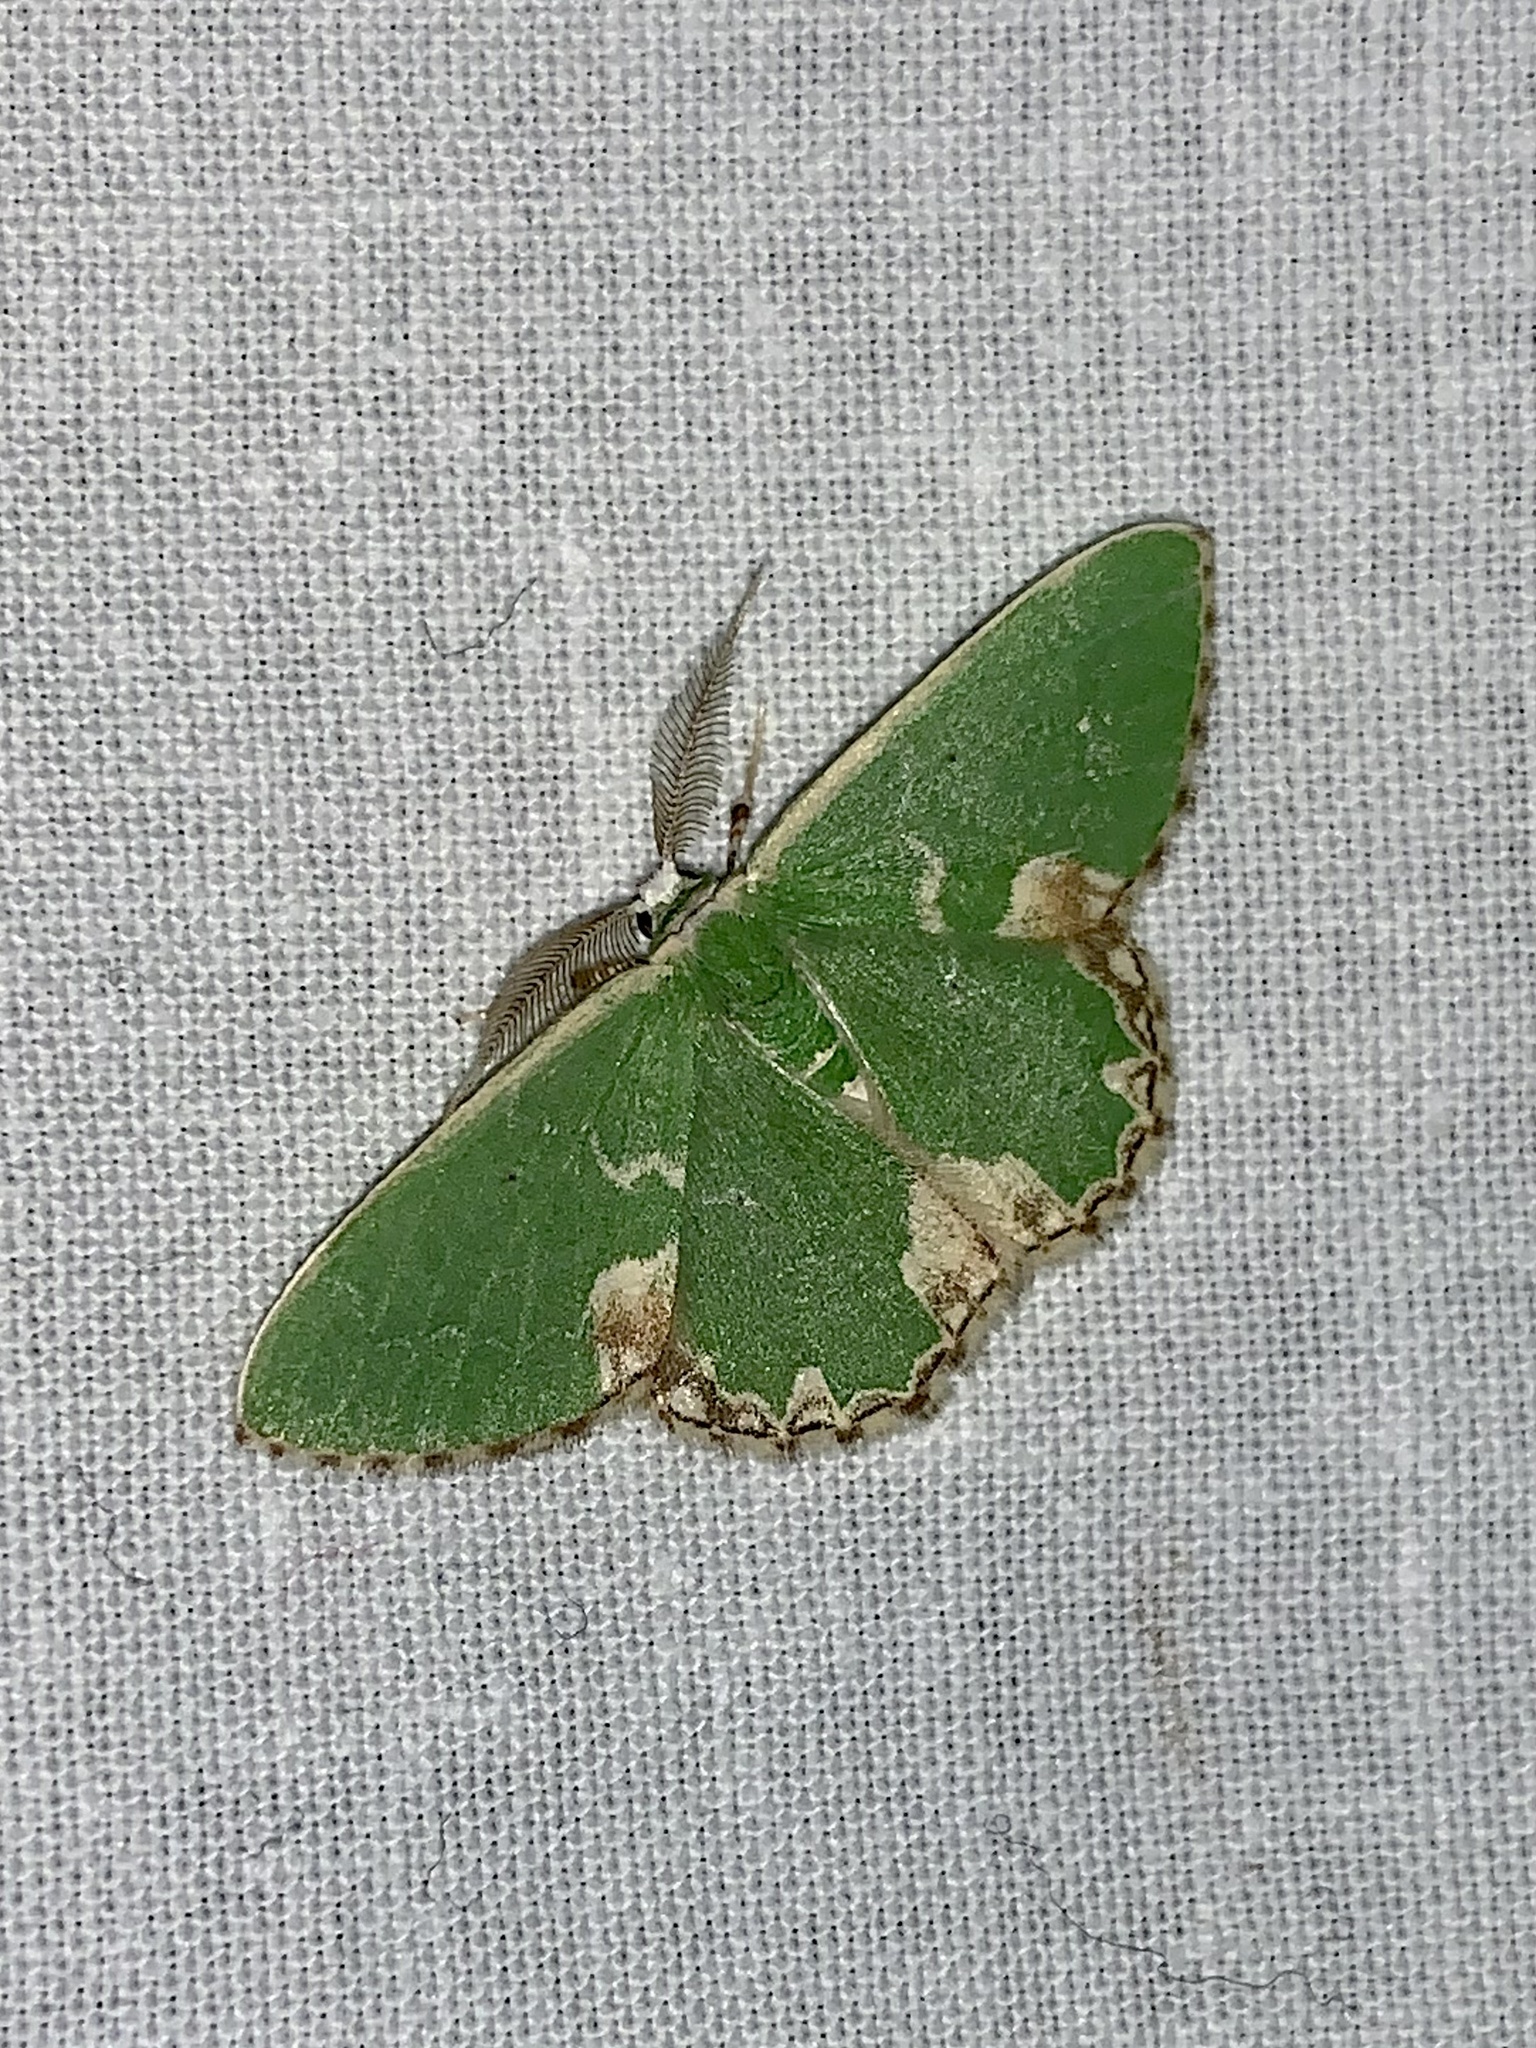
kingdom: Animalia
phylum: Arthropoda
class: Insecta
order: Lepidoptera
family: Geometridae
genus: Comibaena
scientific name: Comibaena bajularia
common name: Blotched emerald
